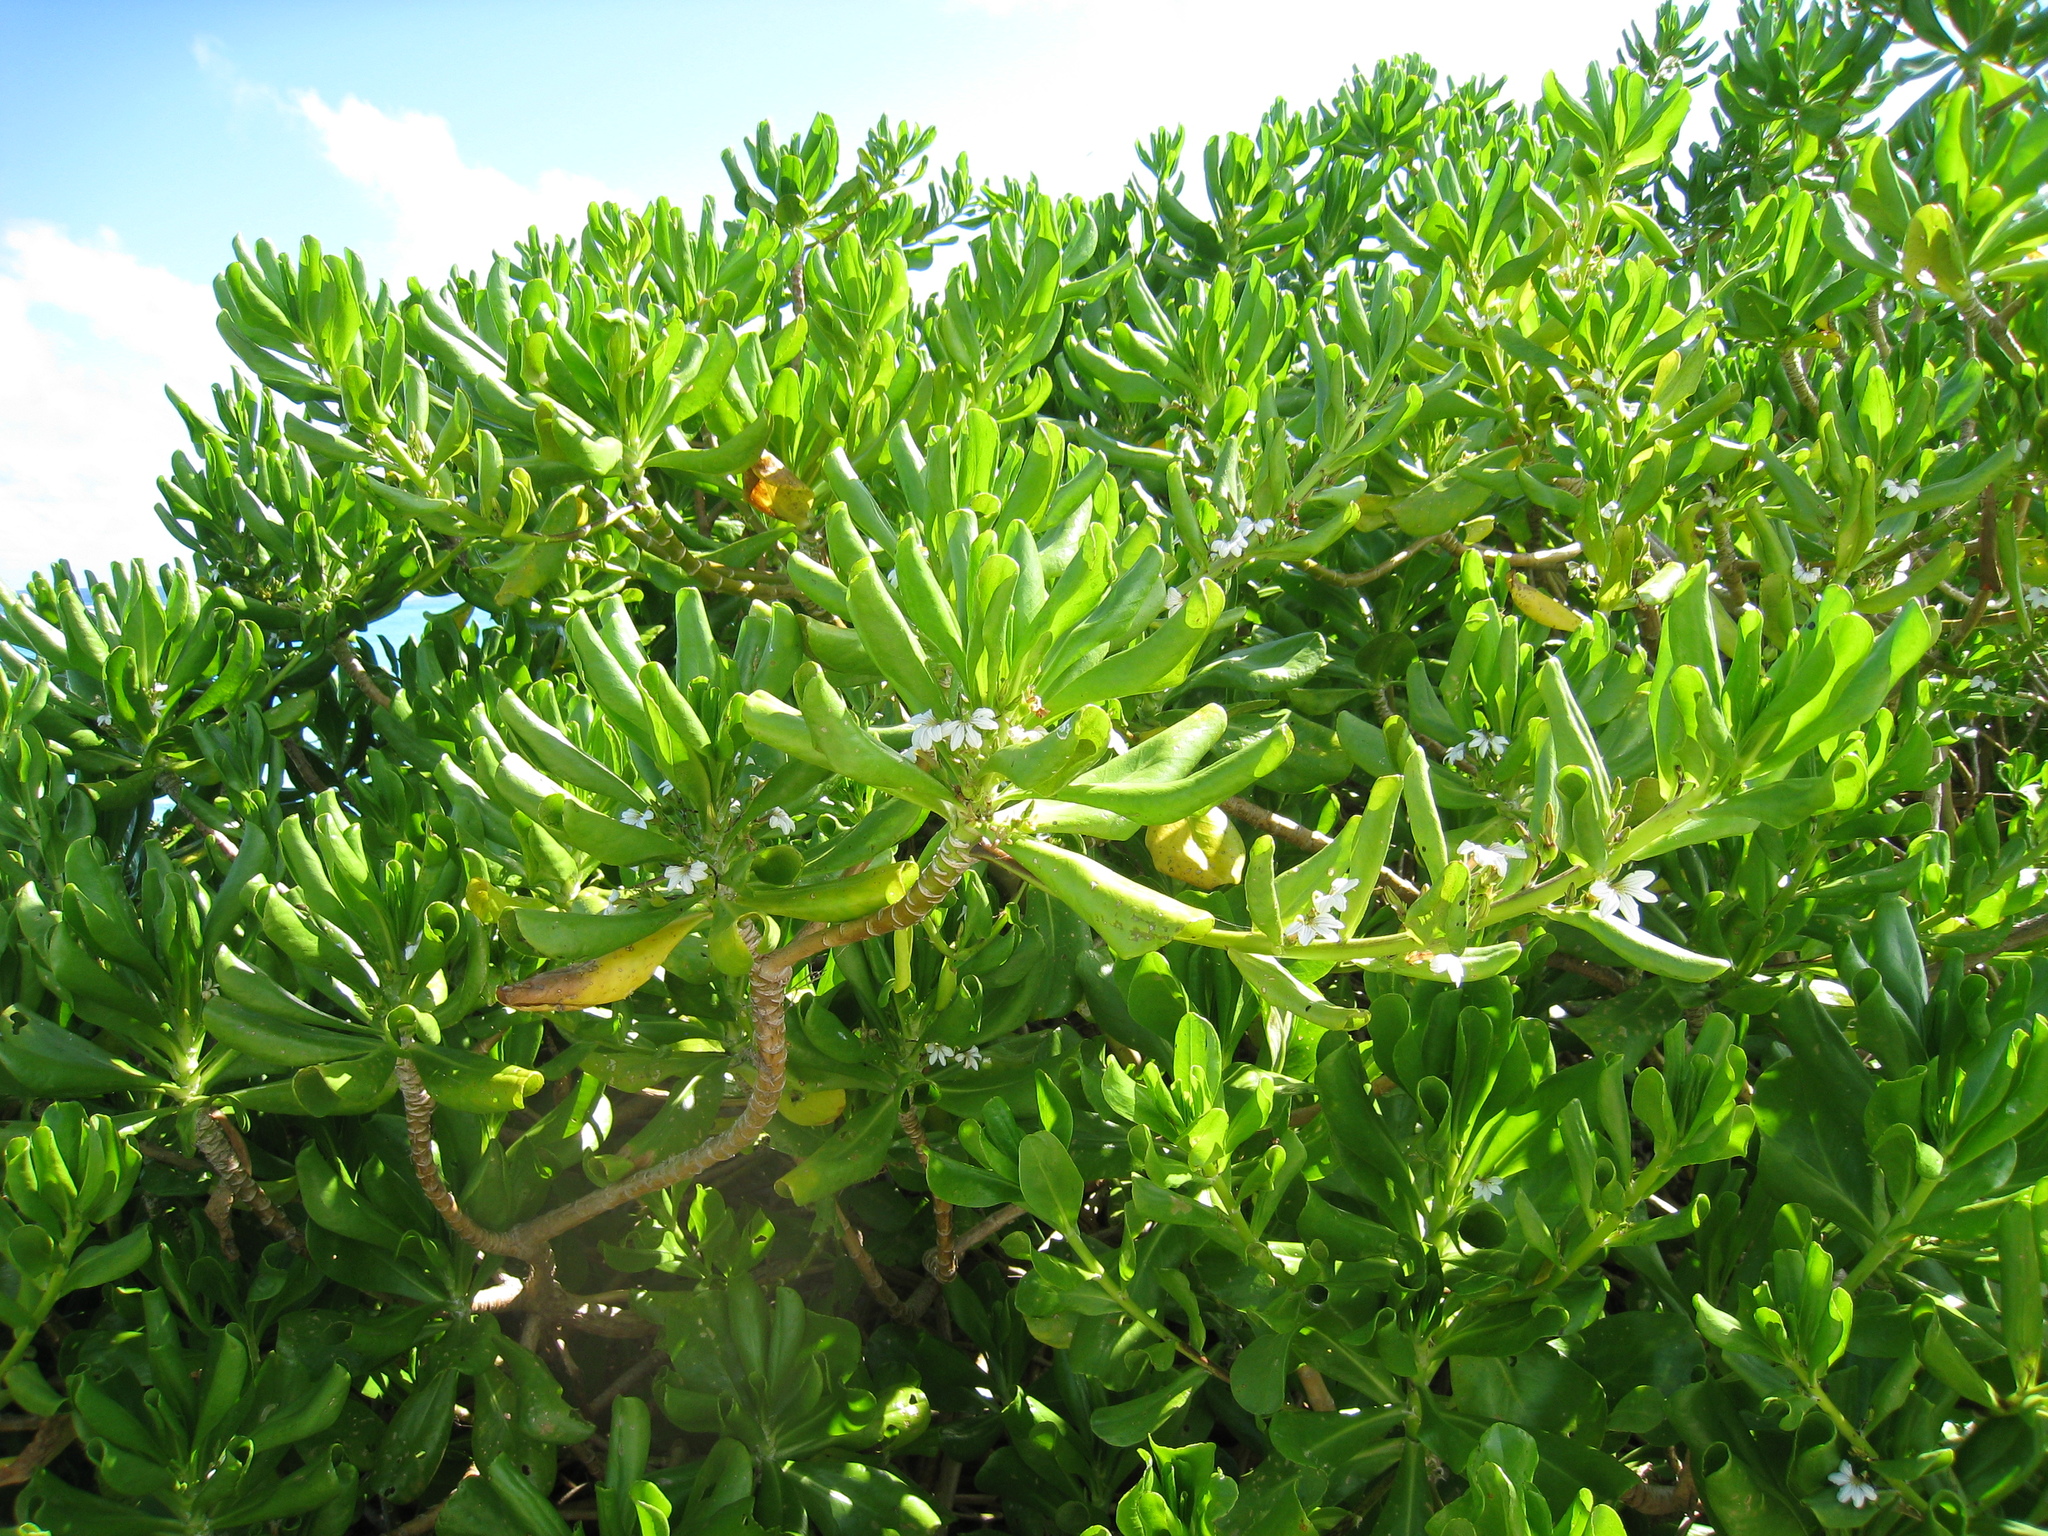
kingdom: Plantae
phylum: Tracheophyta
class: Magnoliopsida
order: Asterales
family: Goodeniaceae
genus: Scaevola
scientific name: Scaevola taccada
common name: Sea lettucetree
